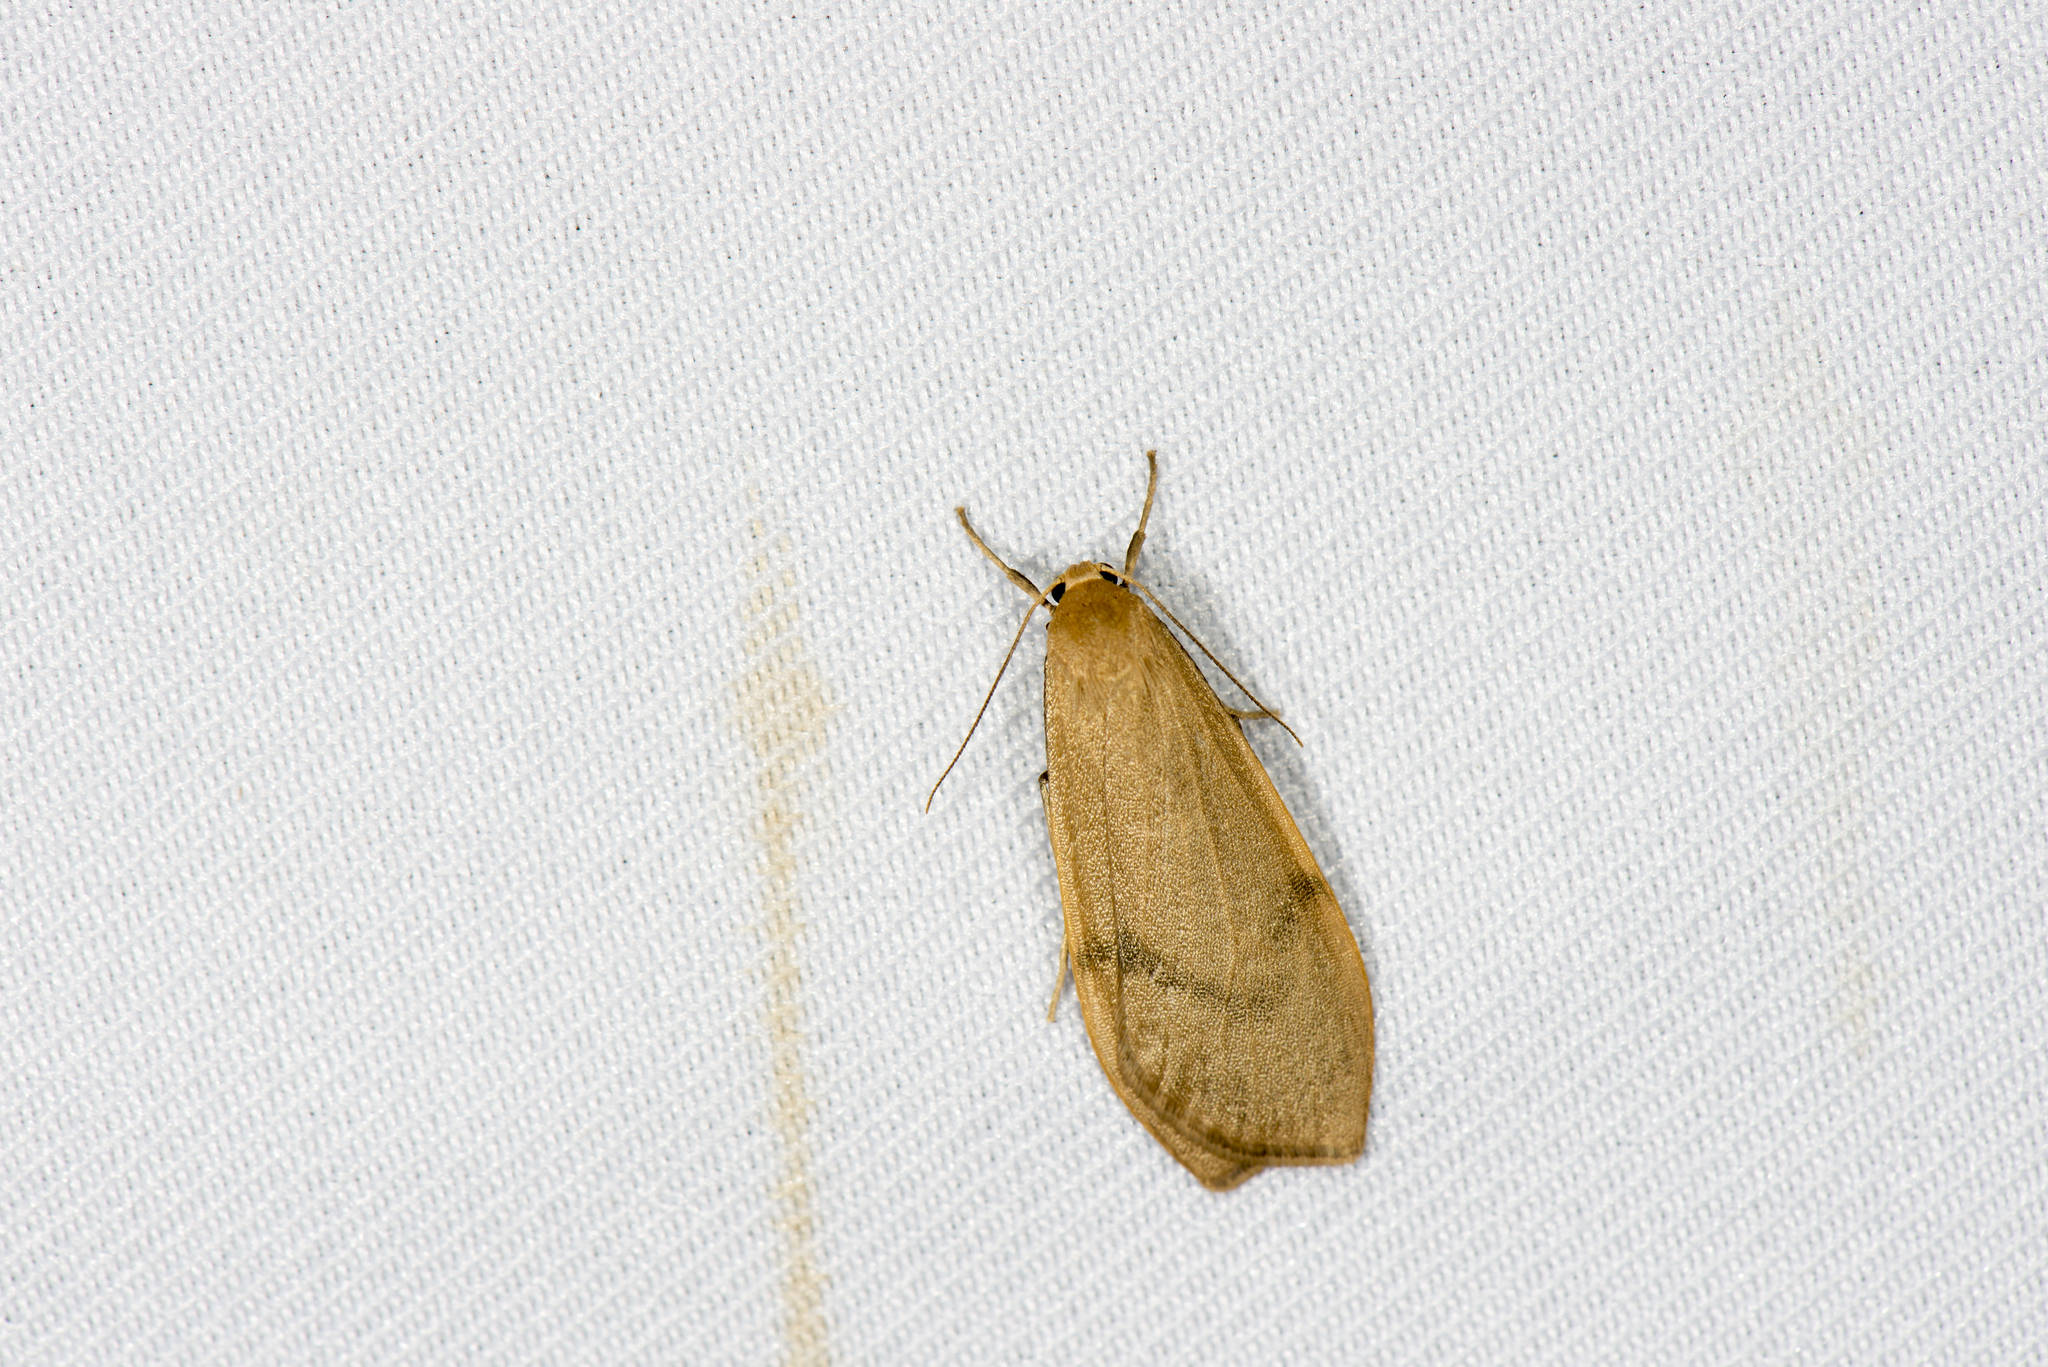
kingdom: Animalia
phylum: Arthropoda
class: Insecta
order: Lepidoptera
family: Erebidae
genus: Eilema
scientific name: Eilema rubrescens
